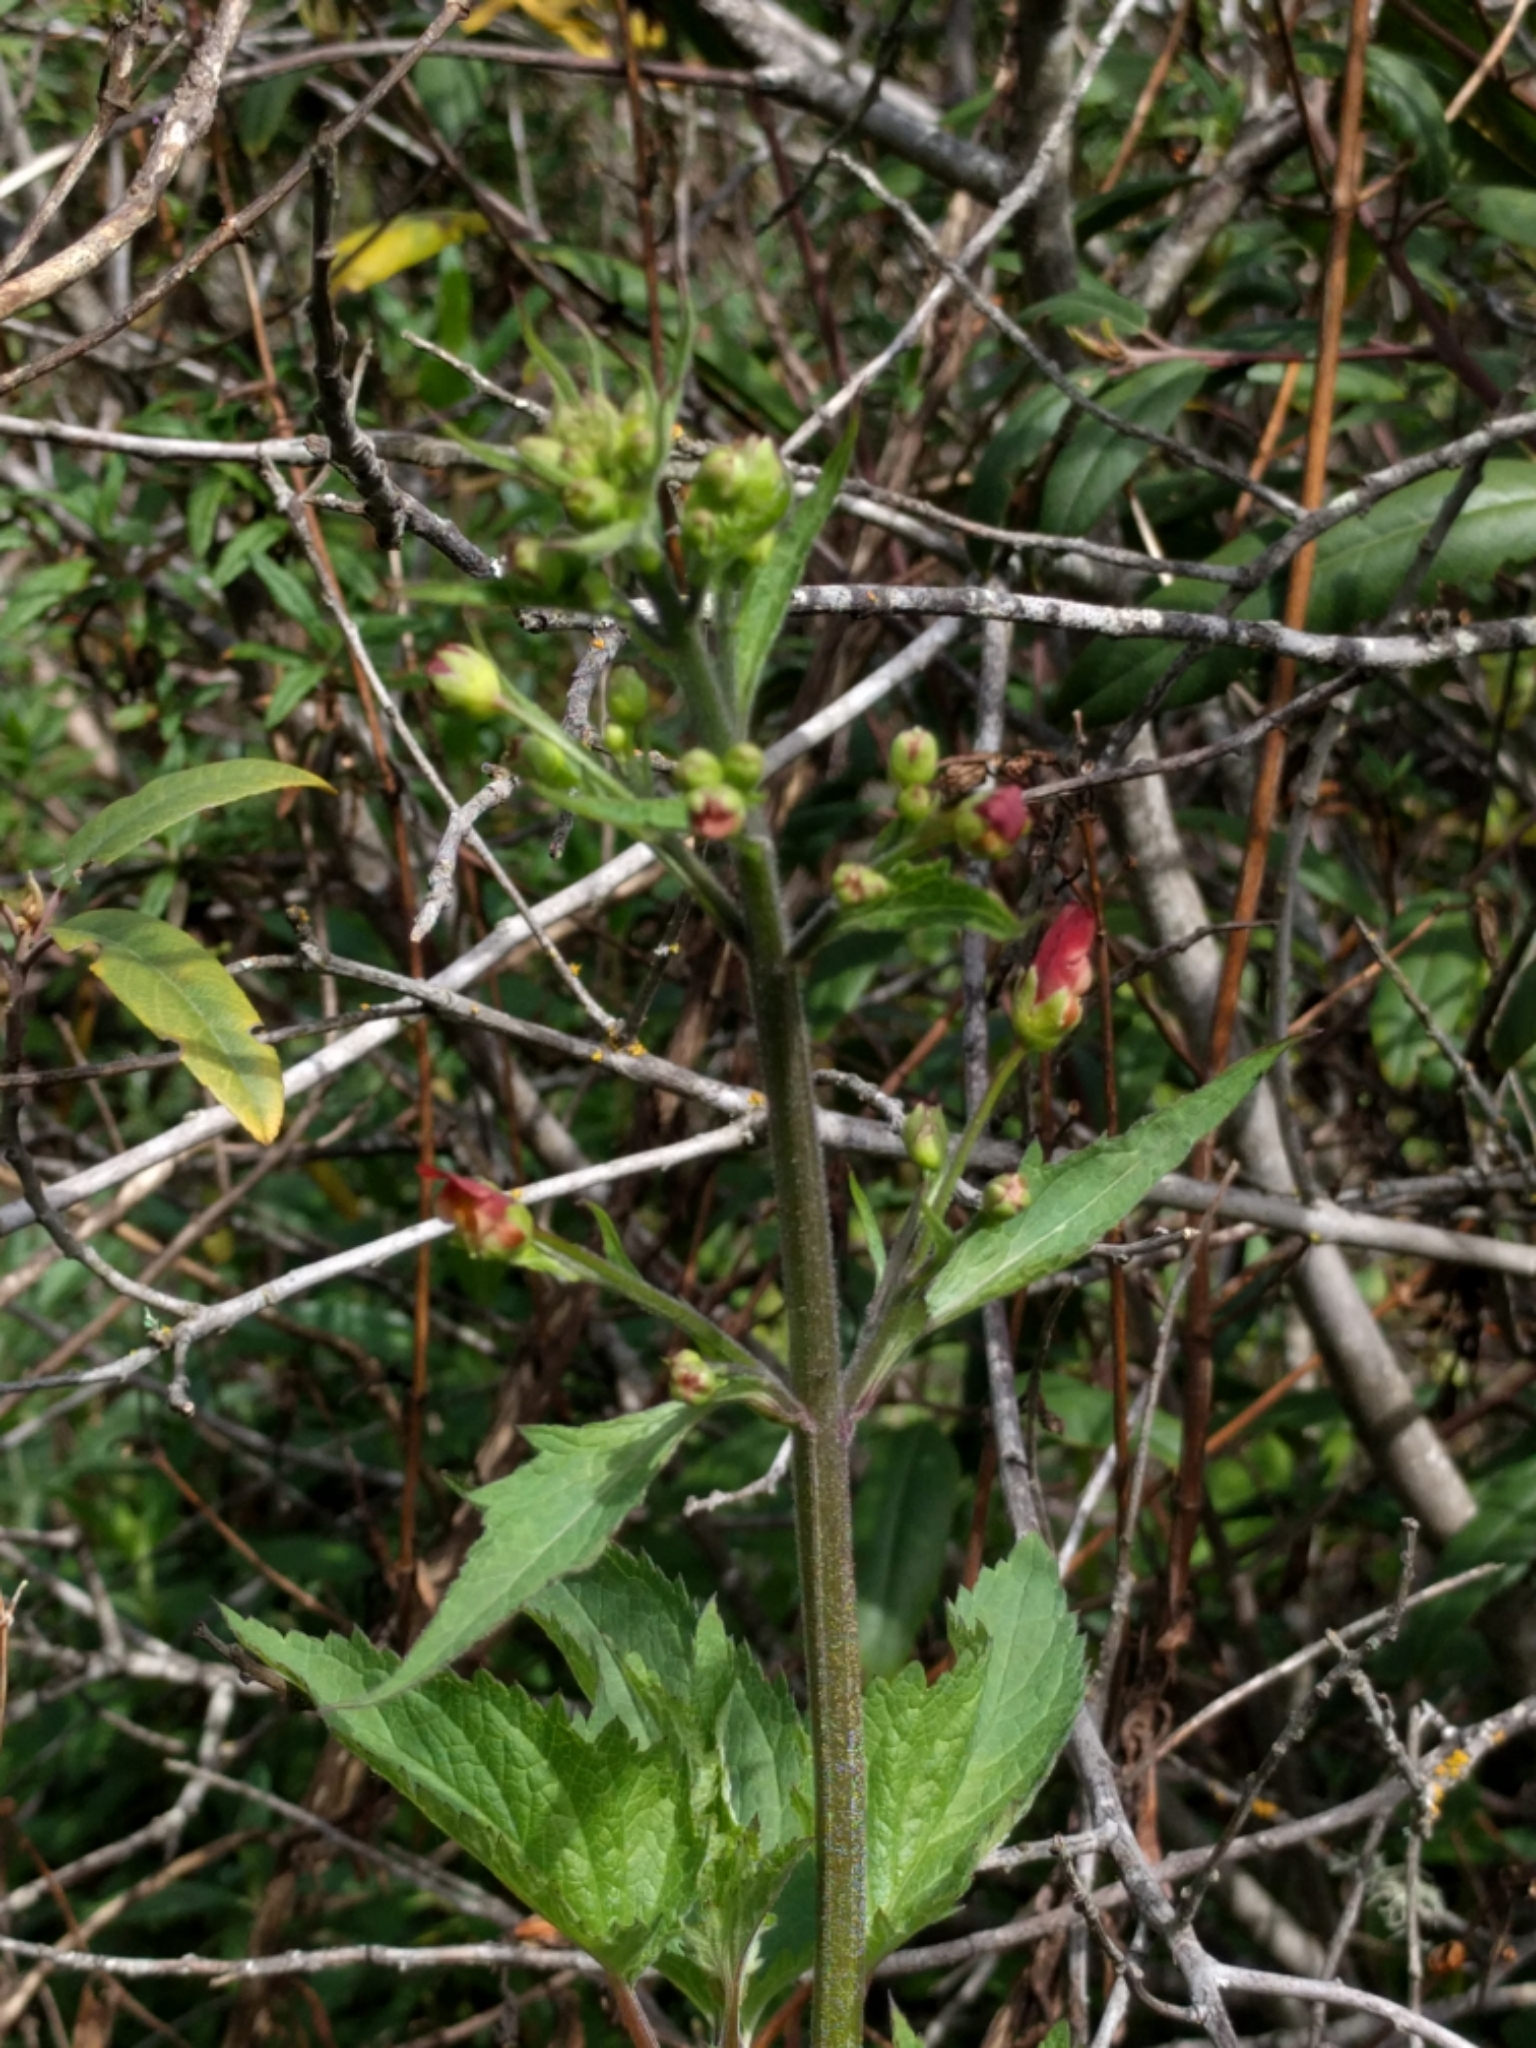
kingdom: Plantae
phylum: Tracheophyta
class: Magnoliopsida
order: Lamiales
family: Scrophulariaceae
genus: Scrophularia
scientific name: Scrophularia californica
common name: California figwort
